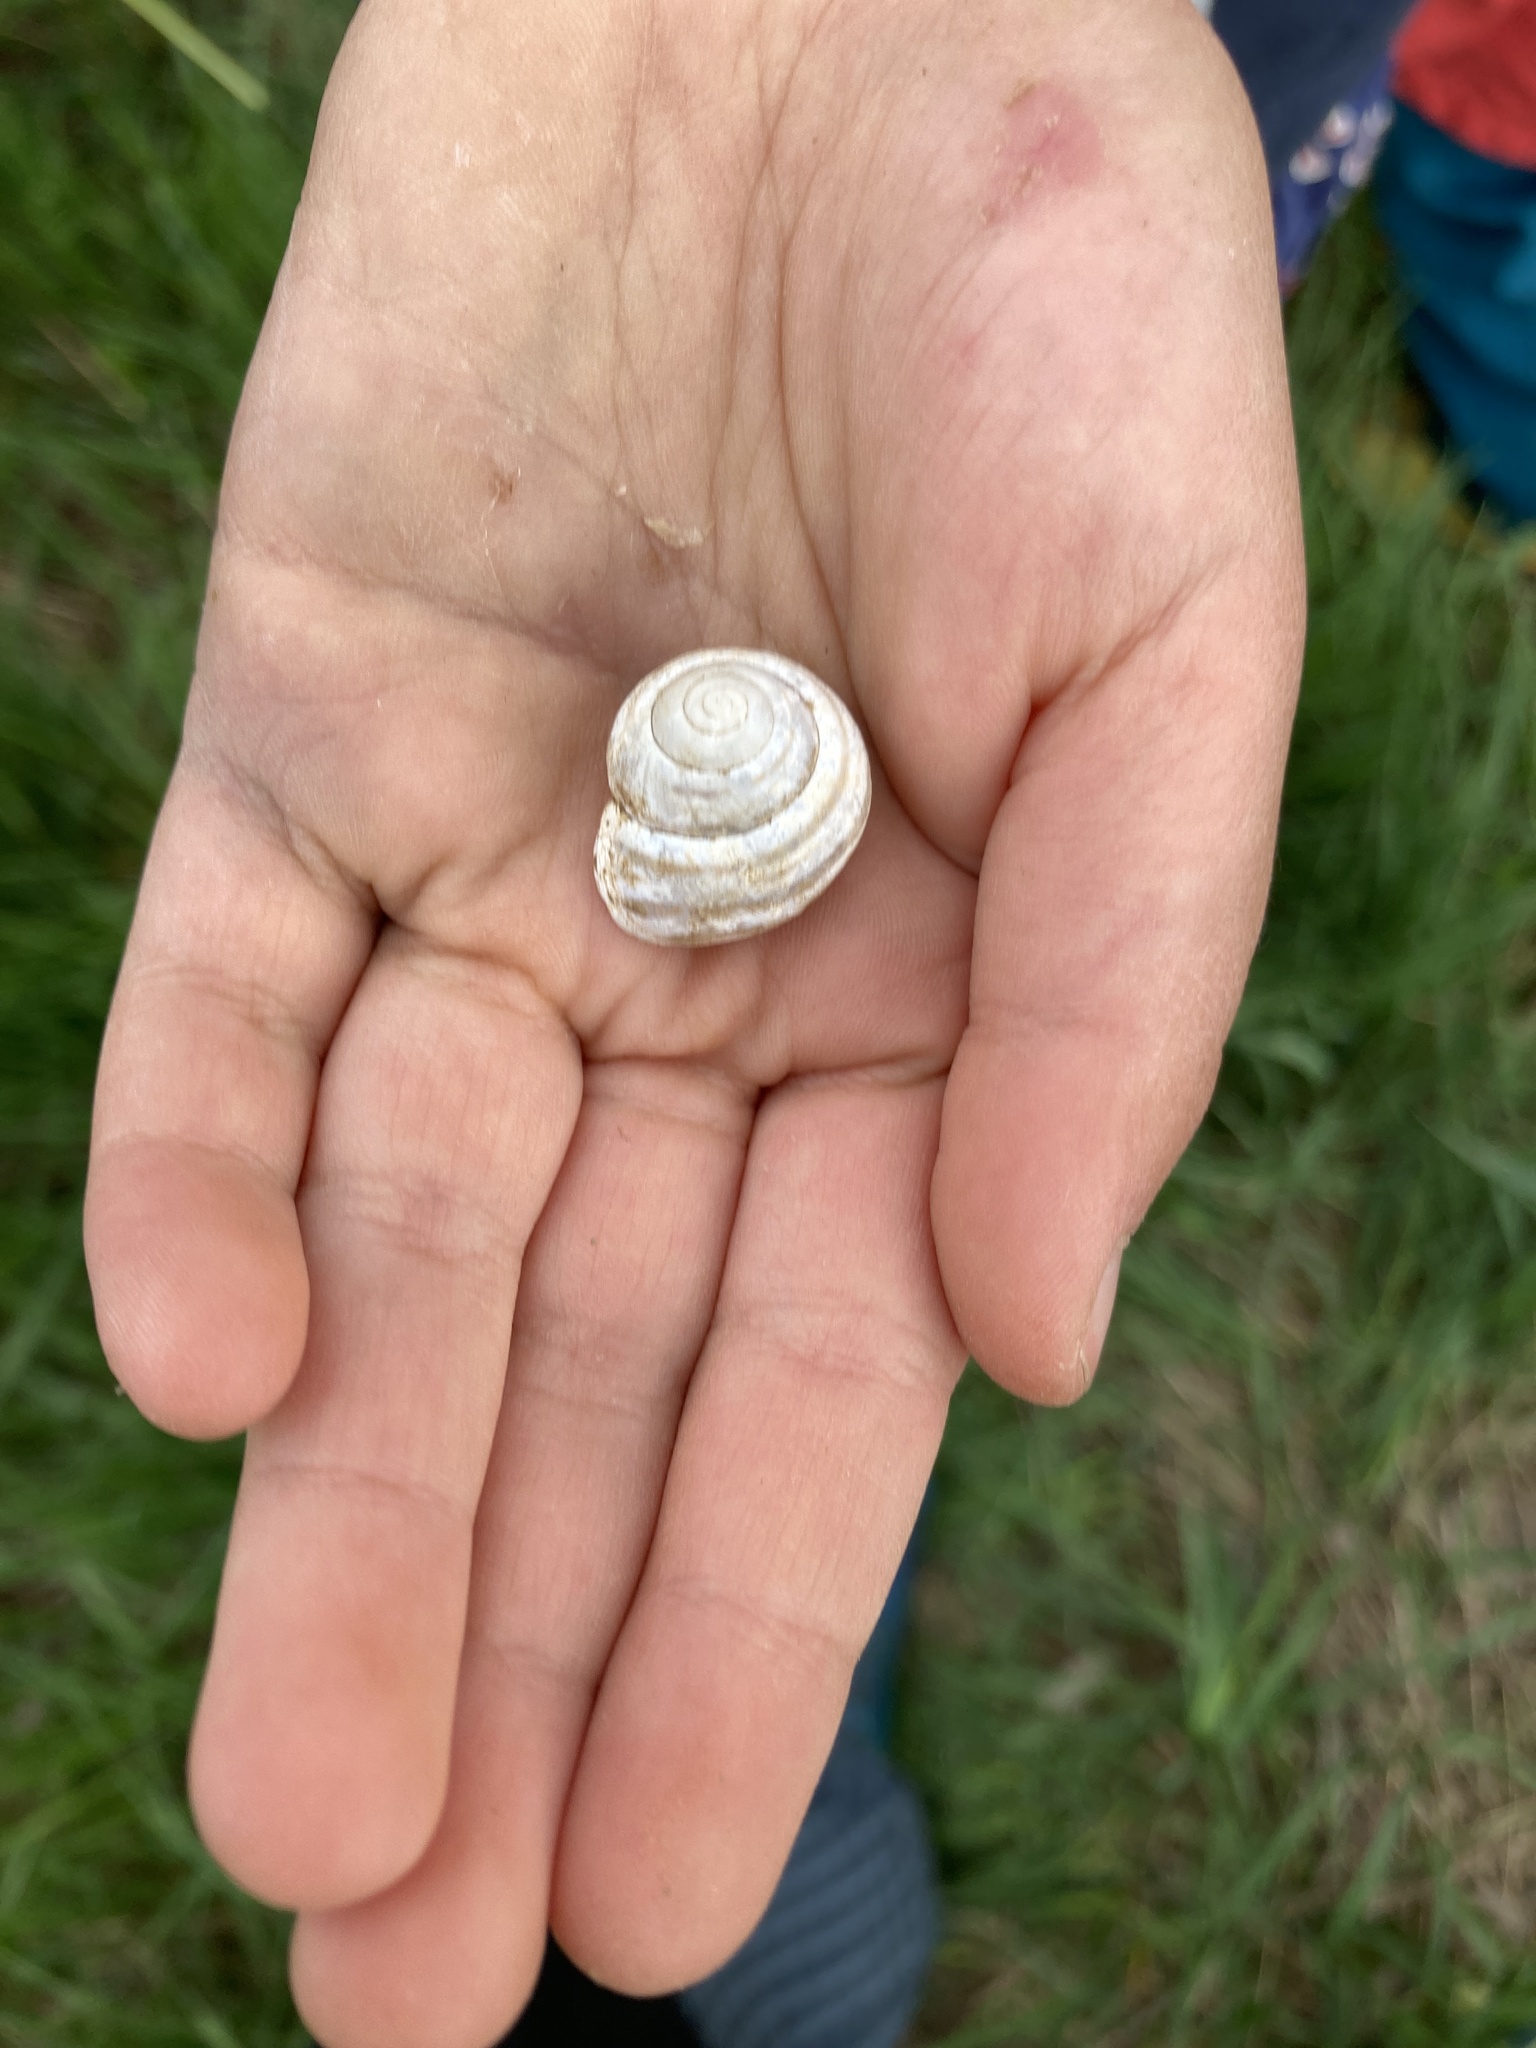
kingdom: Animalia
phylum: Mollusca
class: Gastropoda
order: Stylommatophora
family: Helicidae
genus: Cepaea
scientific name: Cepaea hortensis
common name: White-lip gardensnail
